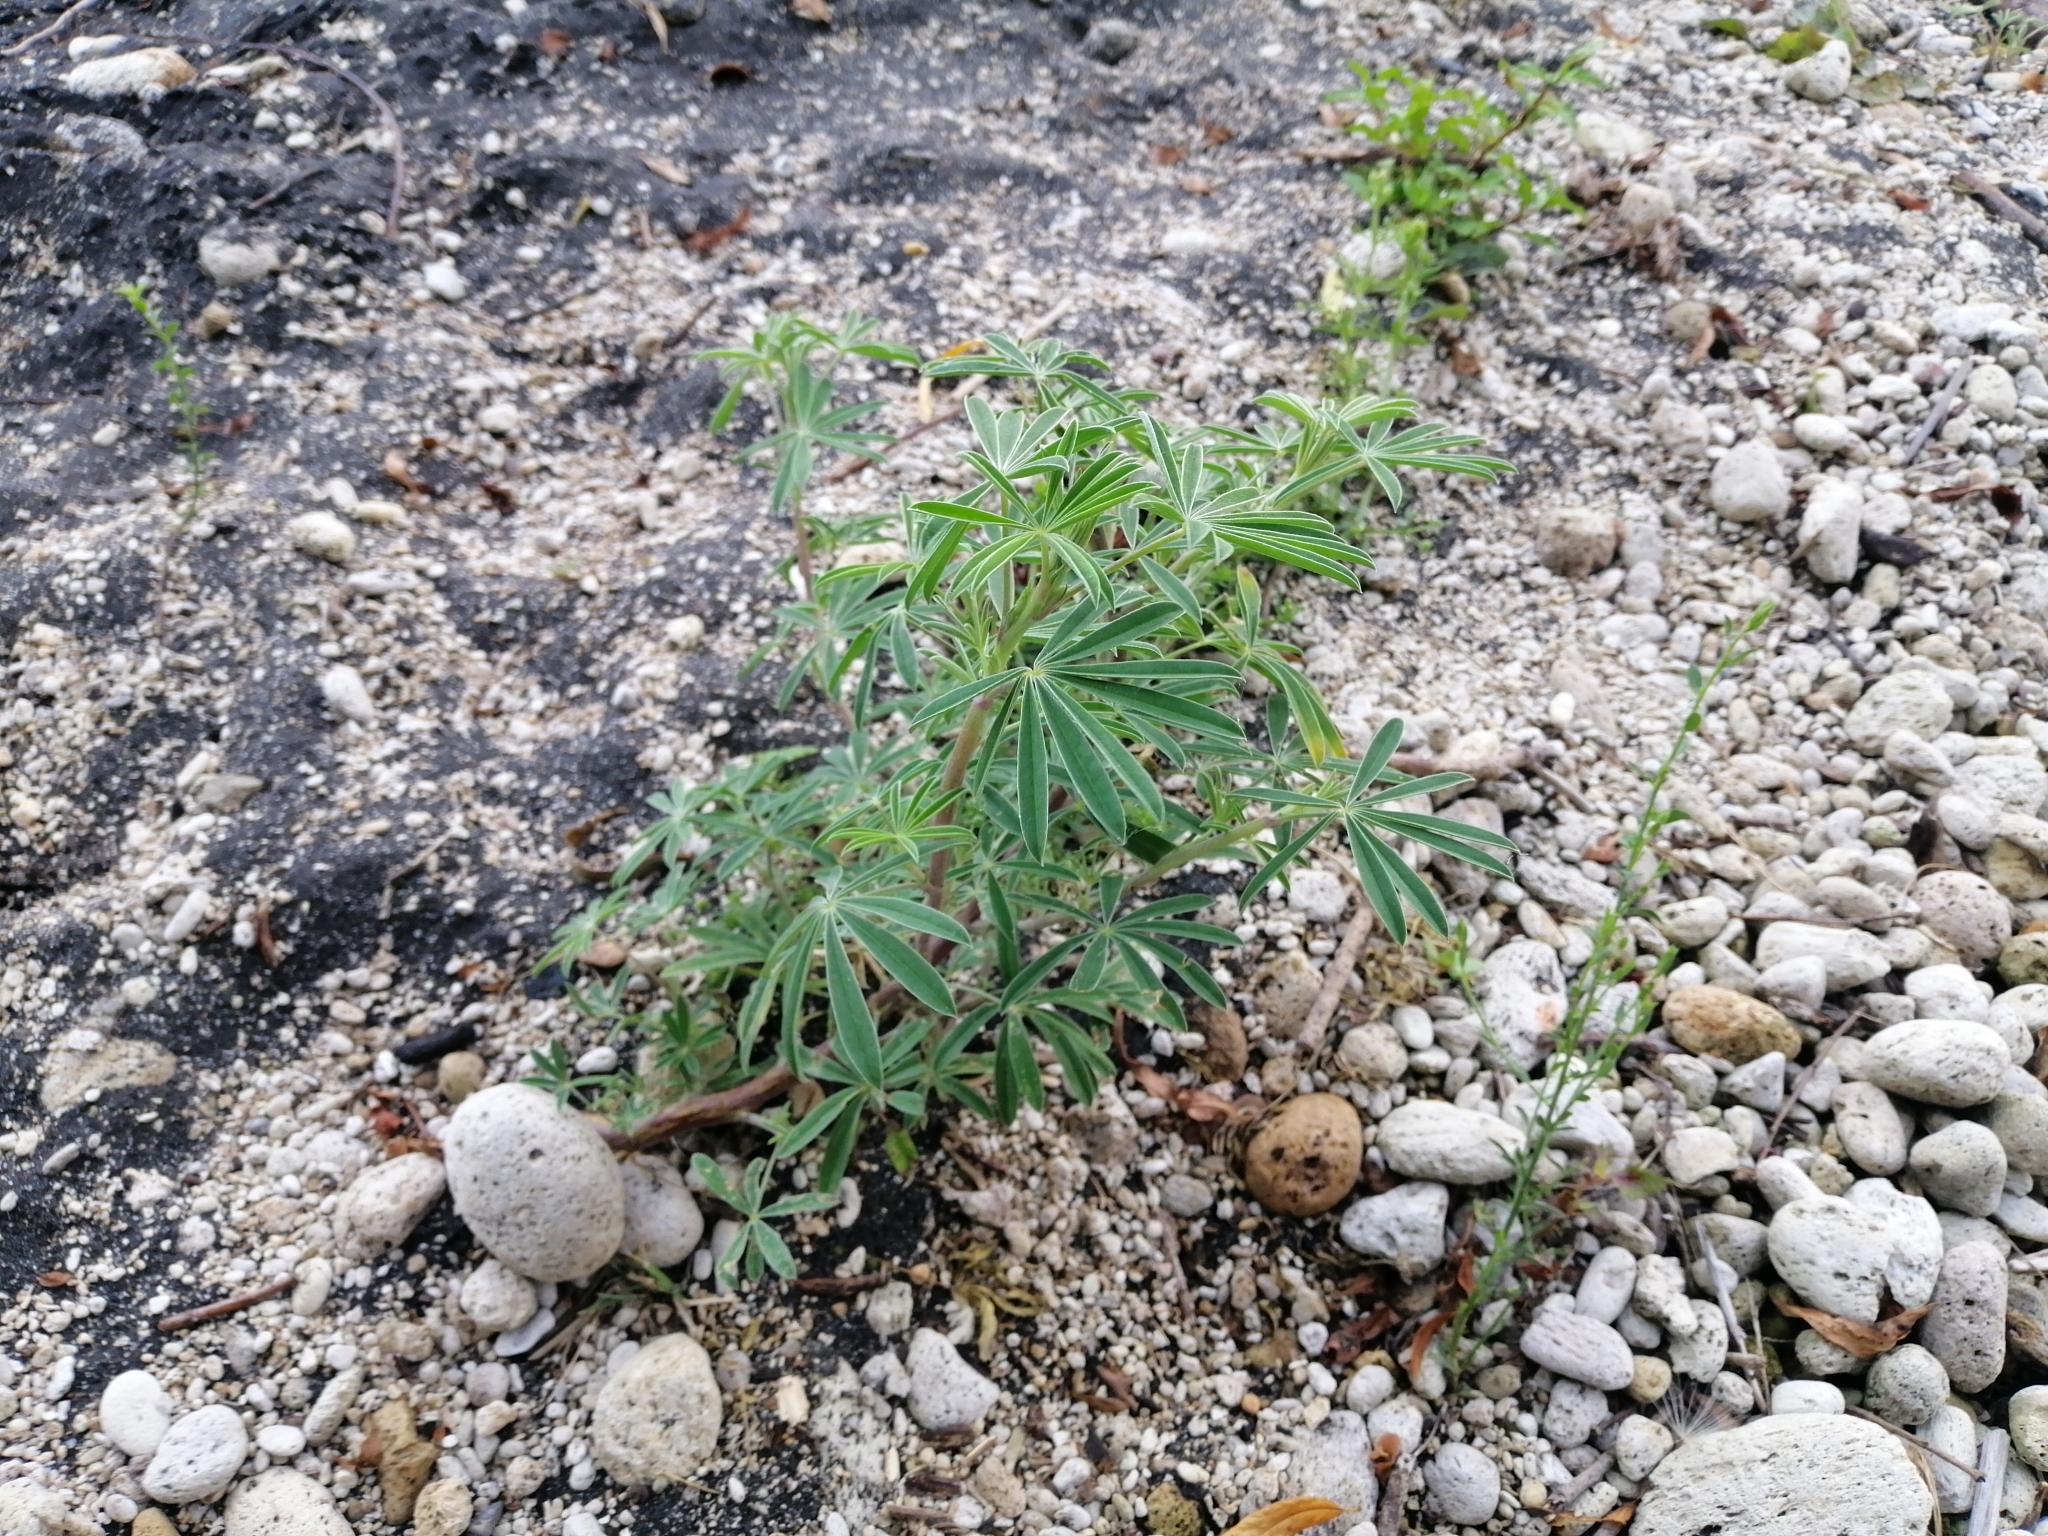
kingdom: Plantae
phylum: Tracheophyta
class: Magnoliopsida
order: Fabales
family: Fabaceae
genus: Lupinus
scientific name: Lupinus arboreus
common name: Yellow bush lupine
